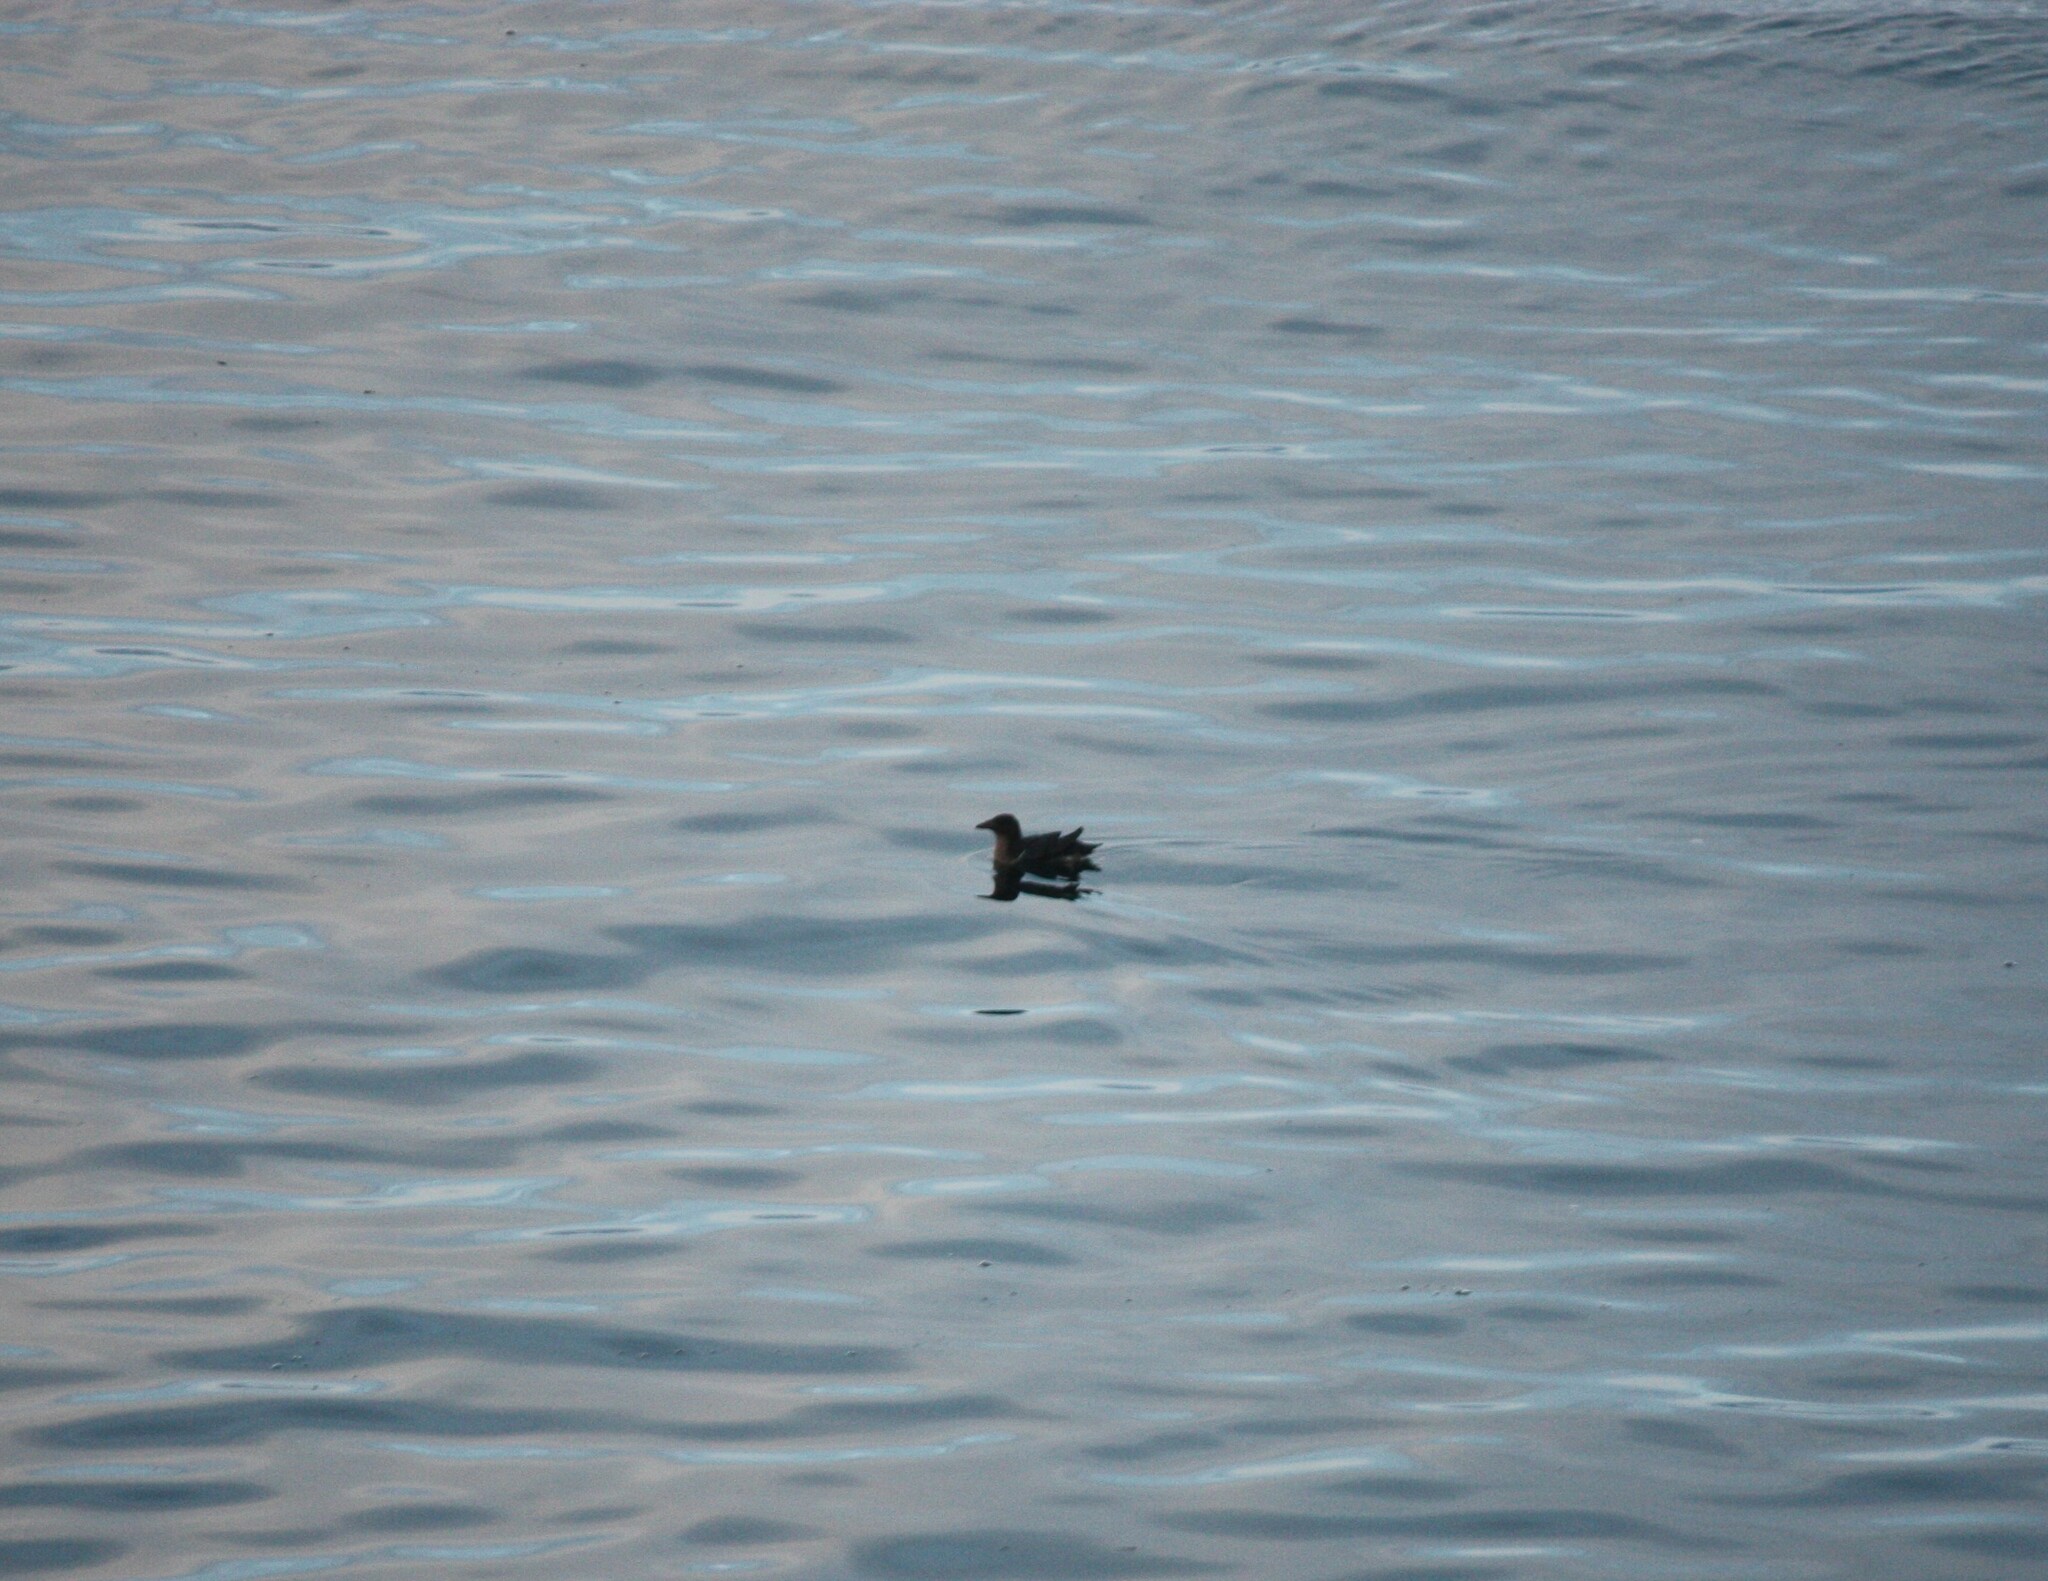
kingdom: Animalia
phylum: Chordata
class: Aves
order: Charadriiformes
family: Alcidae
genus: Cerorhinca
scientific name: Cerorhinca monocerata
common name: Rhinoceros auklet
